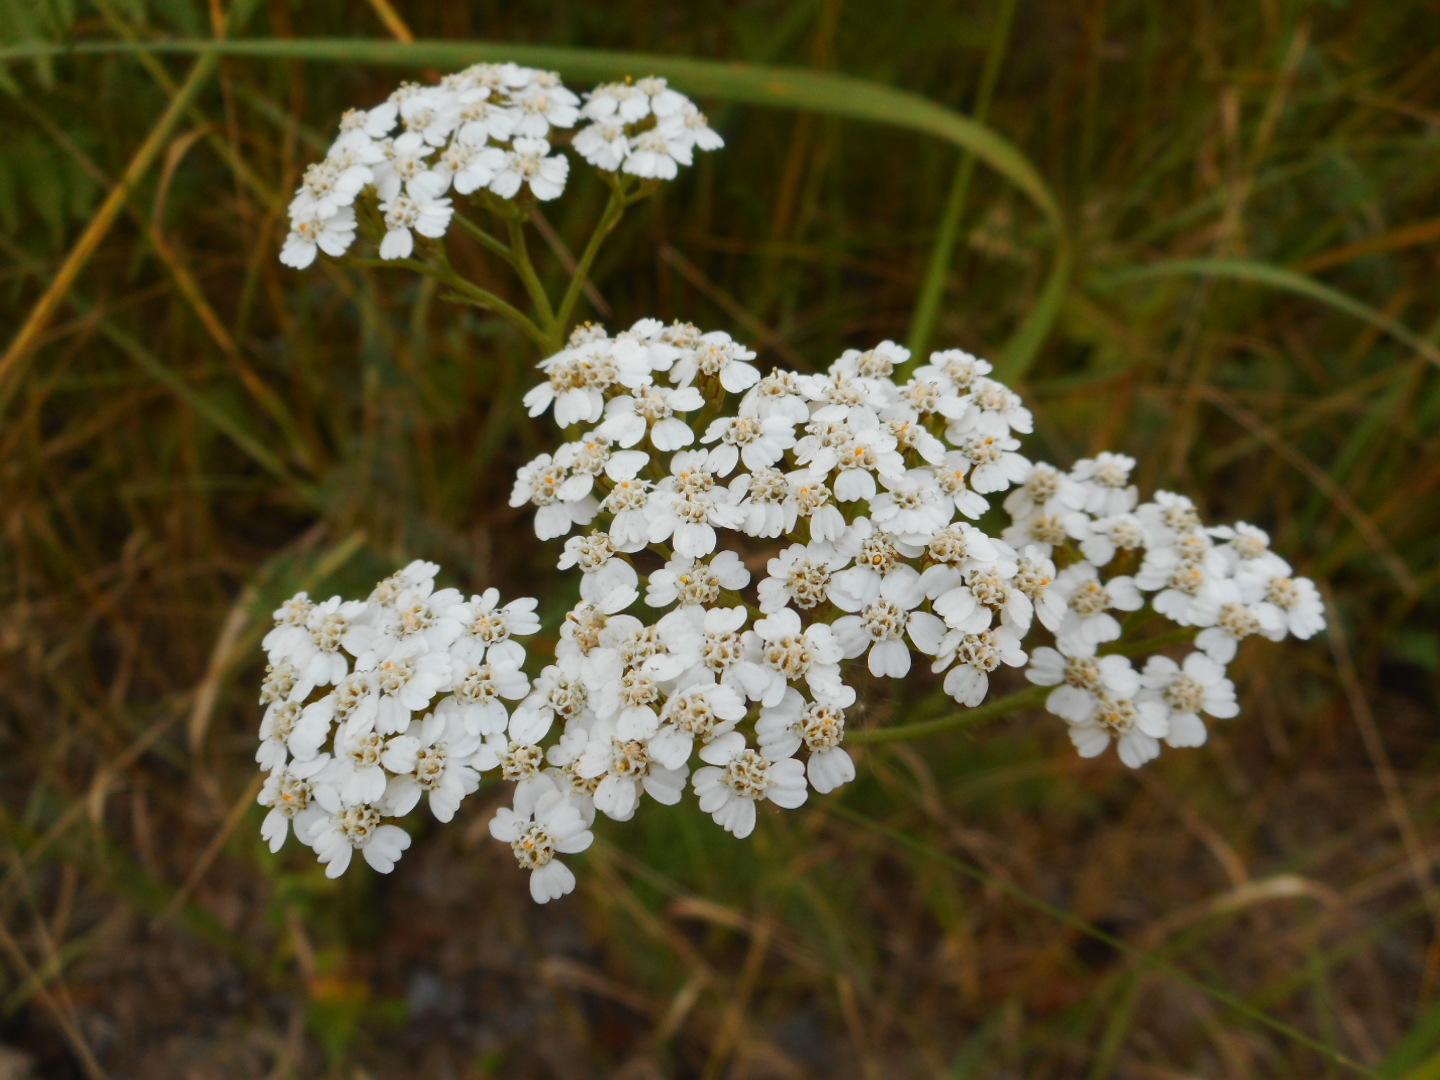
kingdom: Plantae
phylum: Tracheophyta
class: Magnoliopsida
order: Asterales
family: Asteraceae
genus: Achillea
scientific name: Achillea millefolium
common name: Yarrow
